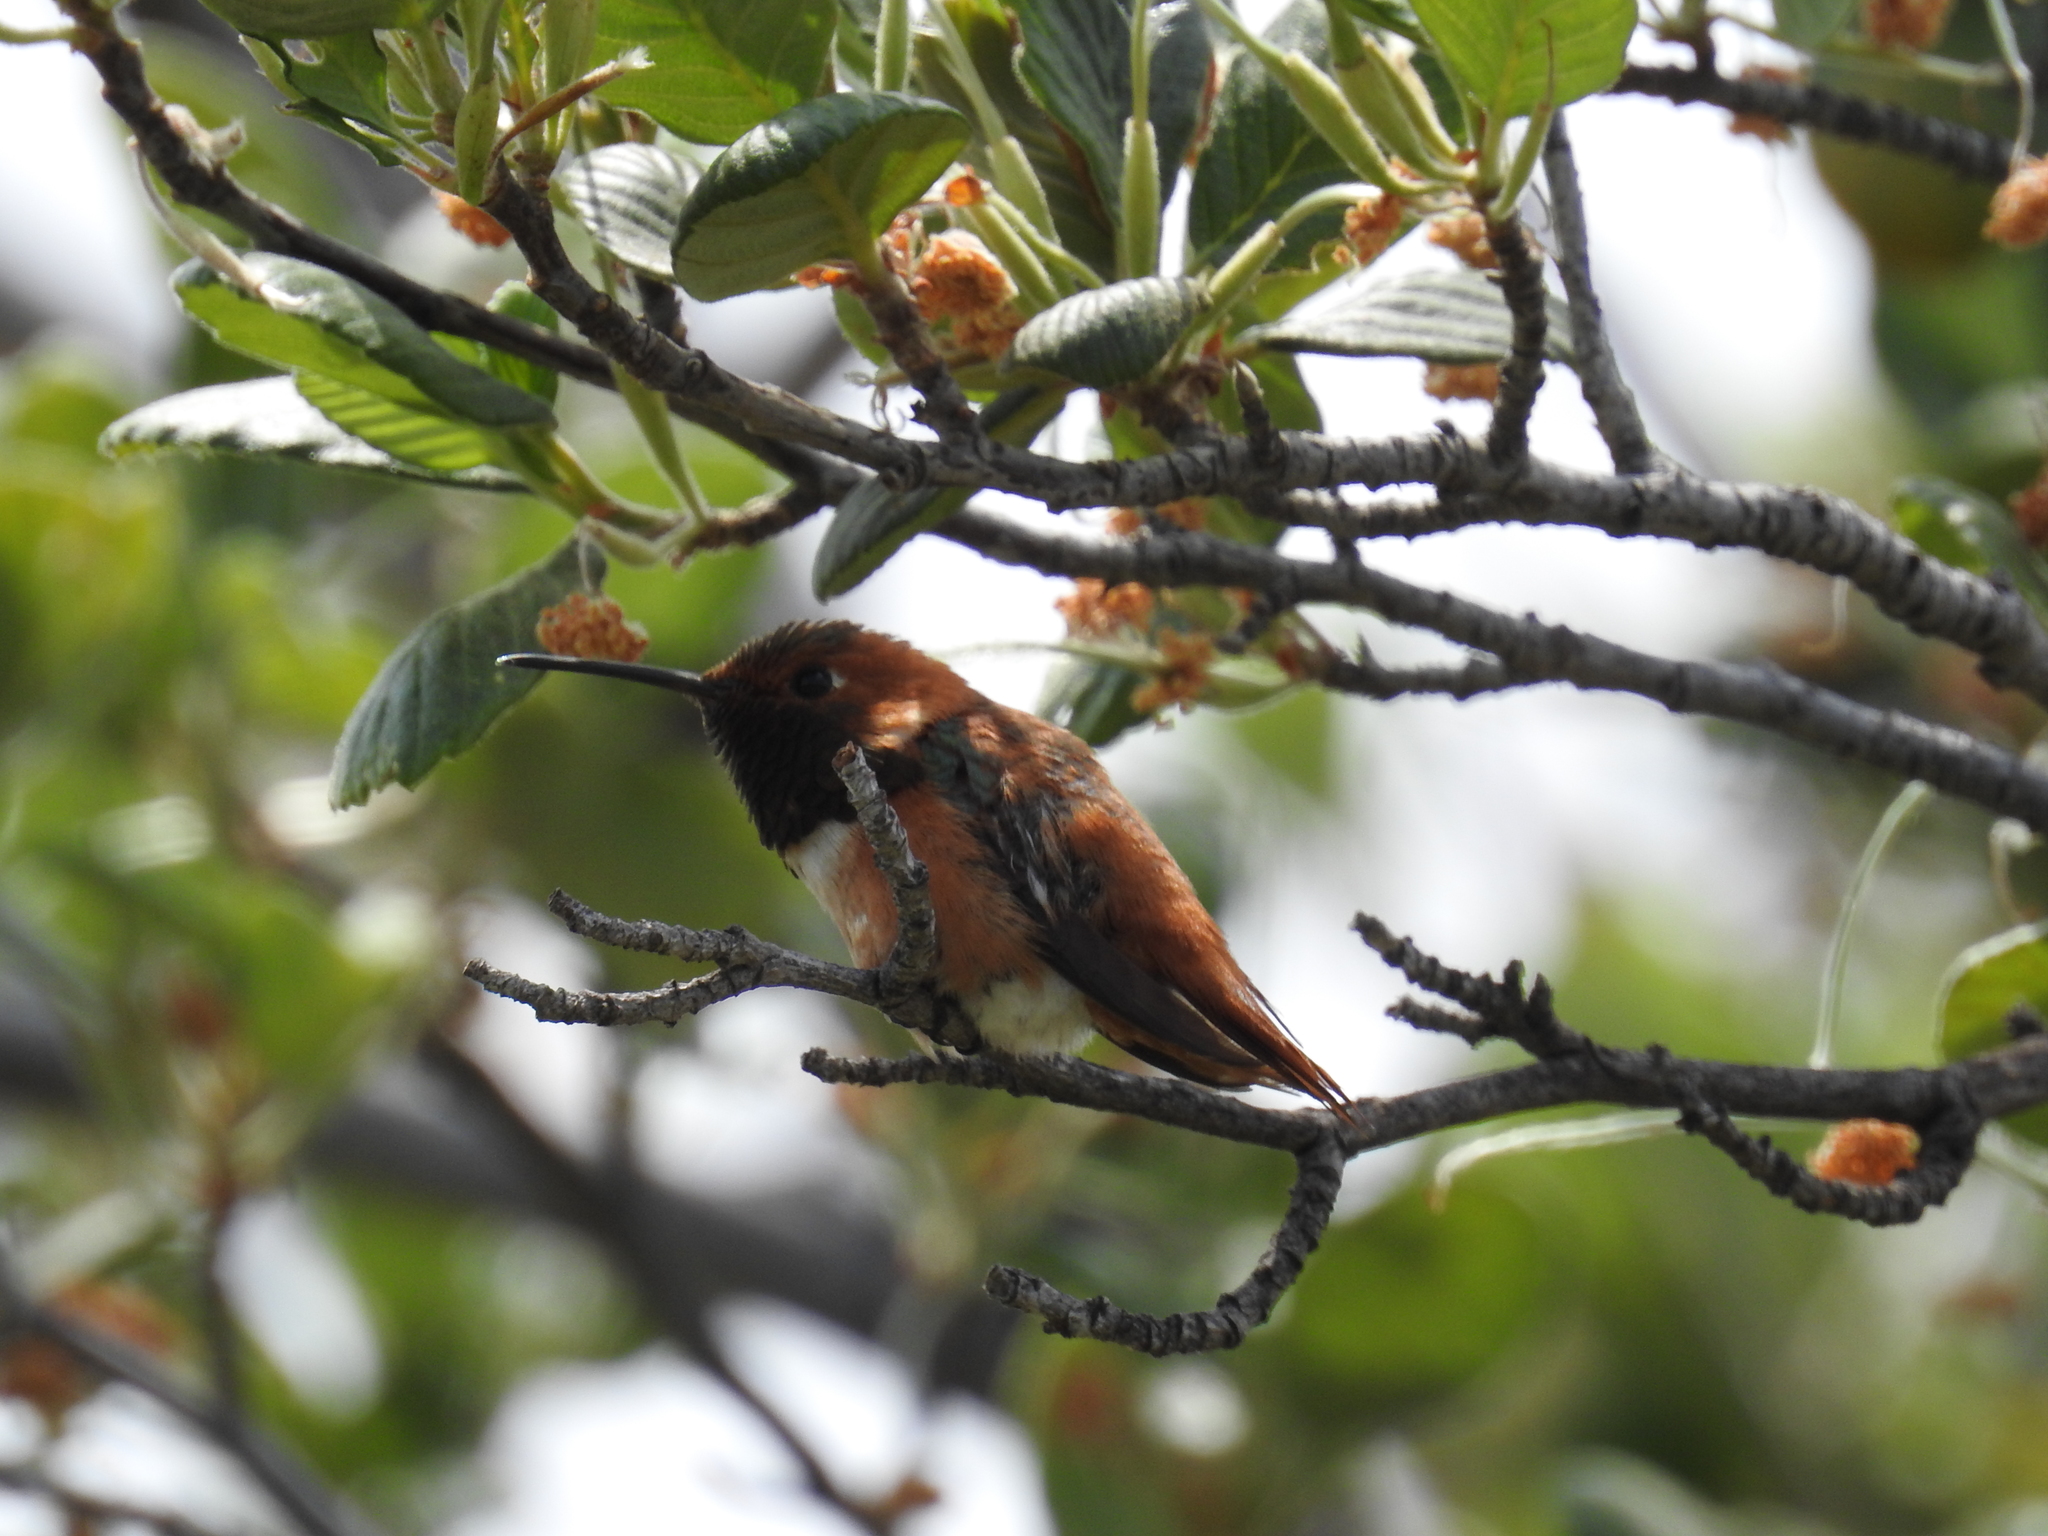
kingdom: Animalia
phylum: Chordata
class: Aves
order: Apodiformes
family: Trochilidae
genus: Selasphorus
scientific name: Selasphorus sasin
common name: Allen's hummingbird
